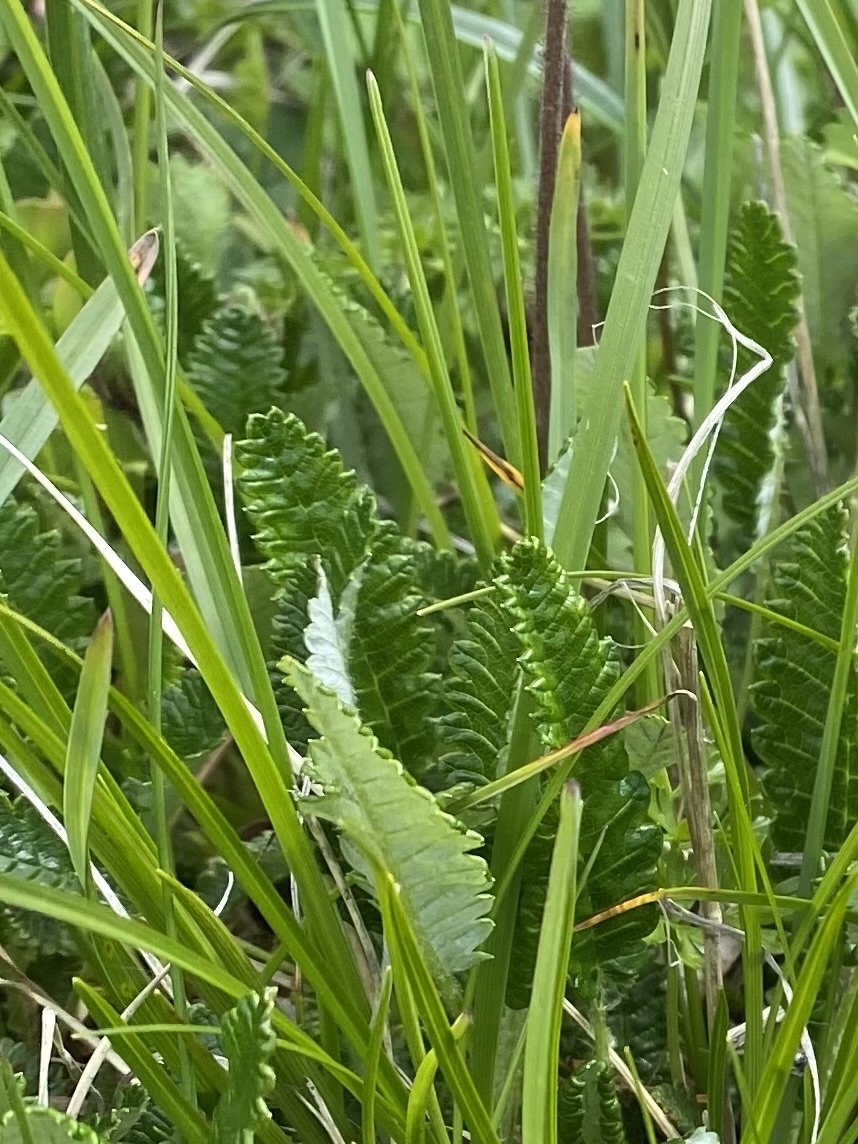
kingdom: Plantae
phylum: Tracheophyta
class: Magnoliopsida
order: Rosales
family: Rosaceae
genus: Dryas
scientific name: Dryas octopetala
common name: Eight-petal mountain-avens
